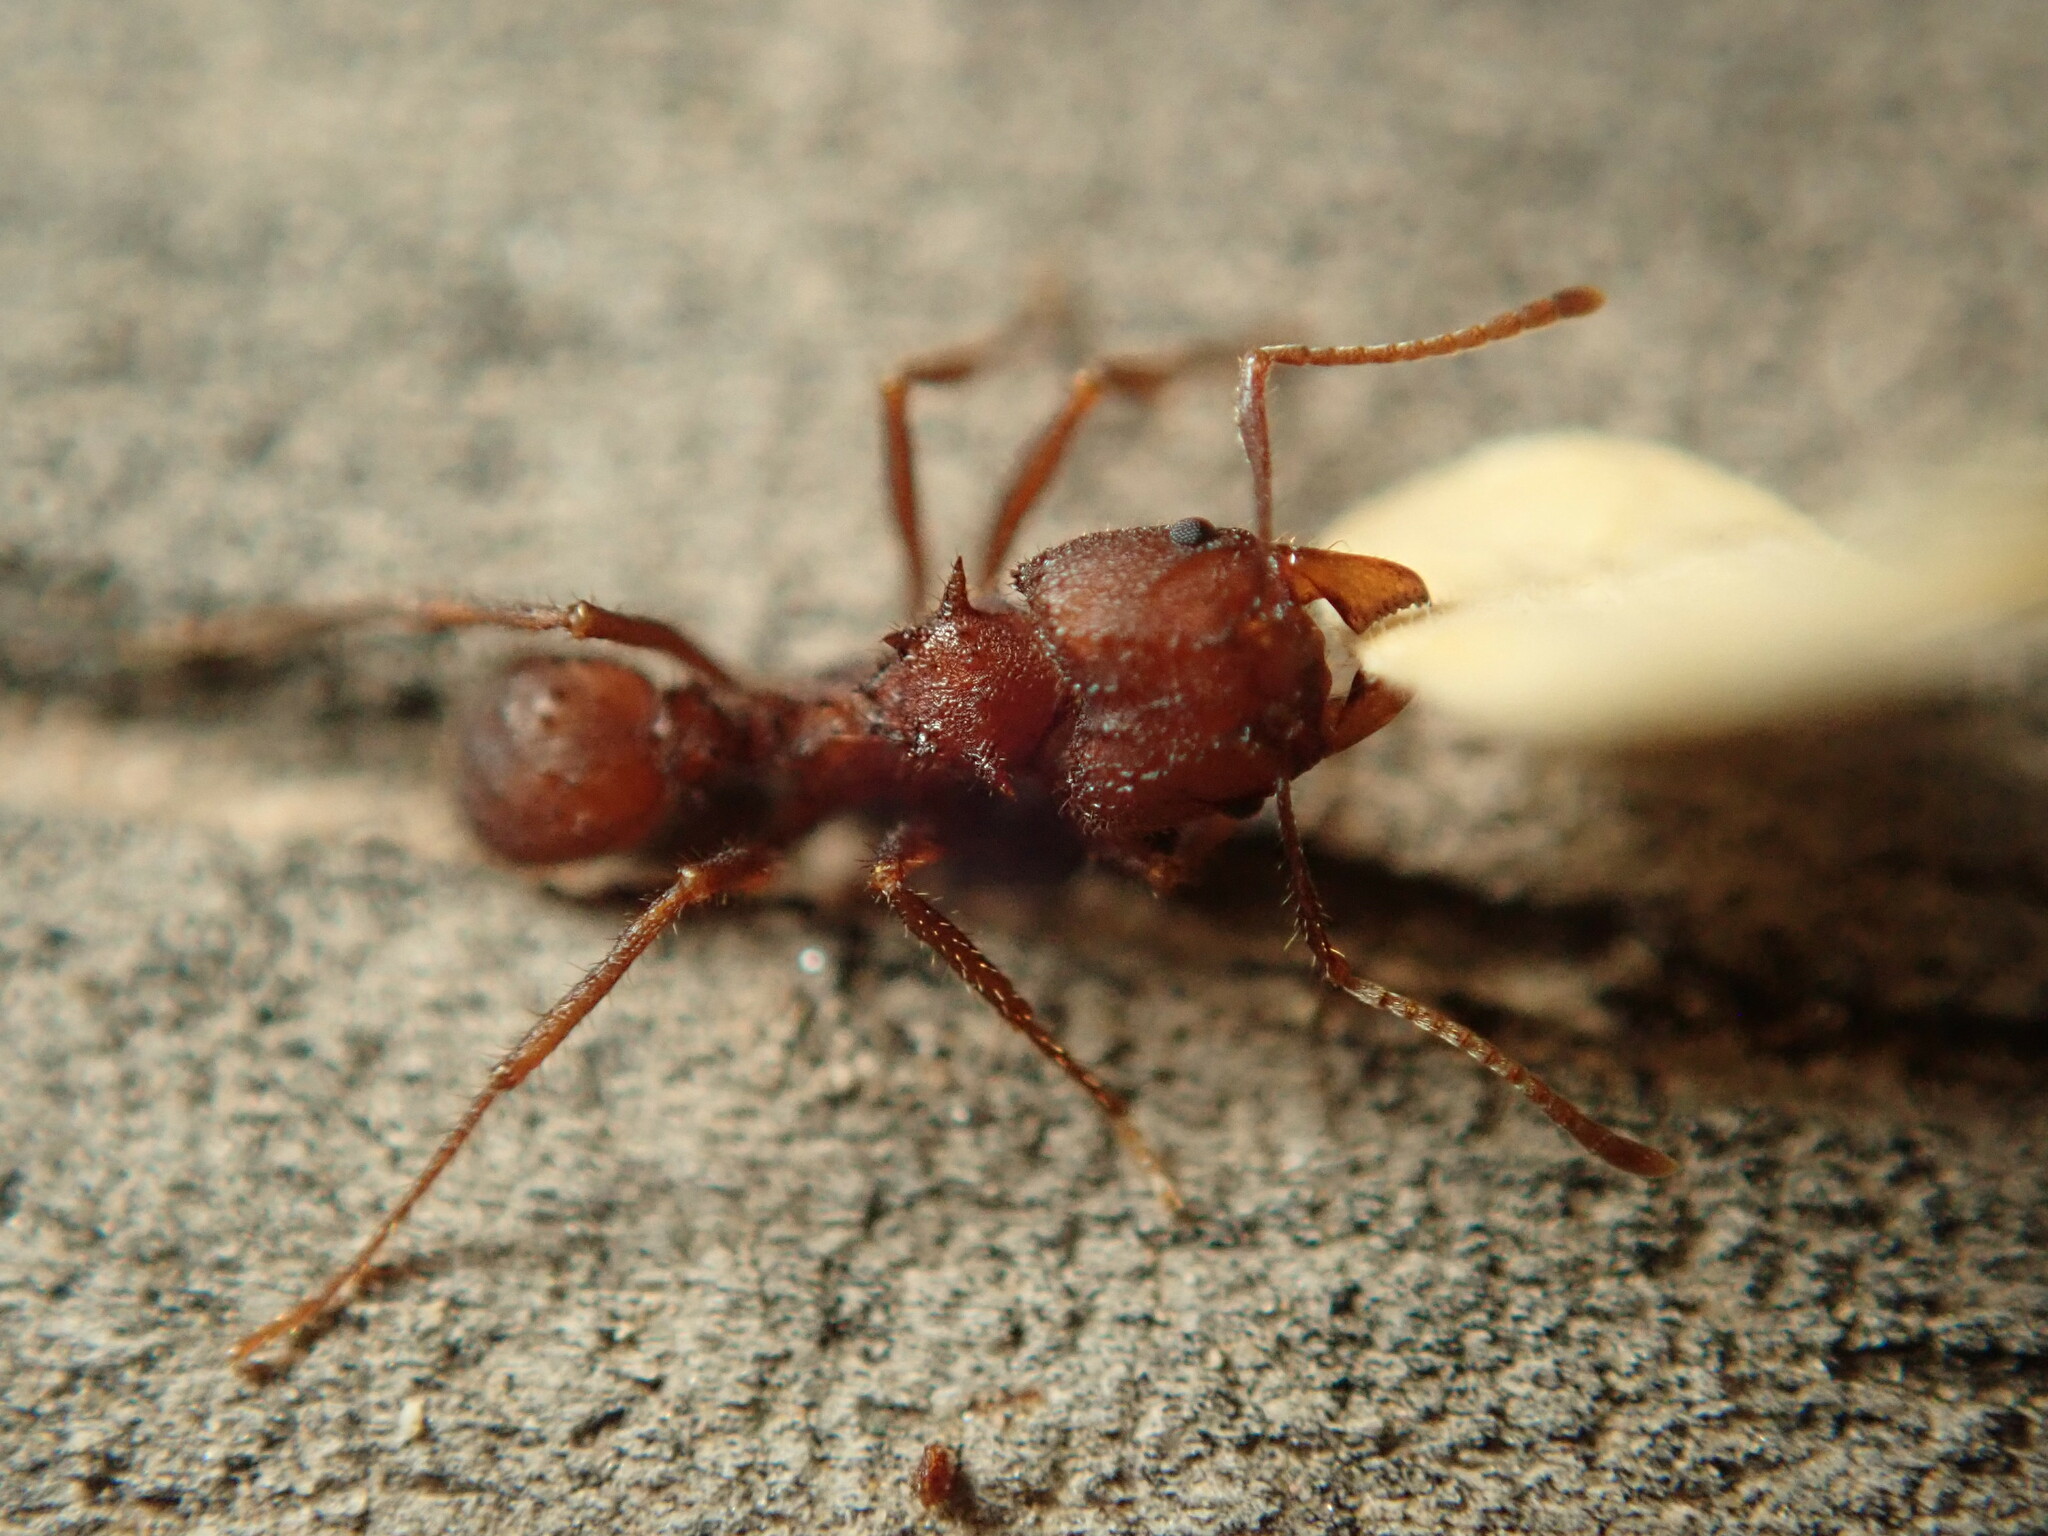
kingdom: Animalia
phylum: Arthropoda
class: Insecta
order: Hymenoptera
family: Formicidae
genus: Acromyrmex
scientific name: Acromyrmex versicolor
